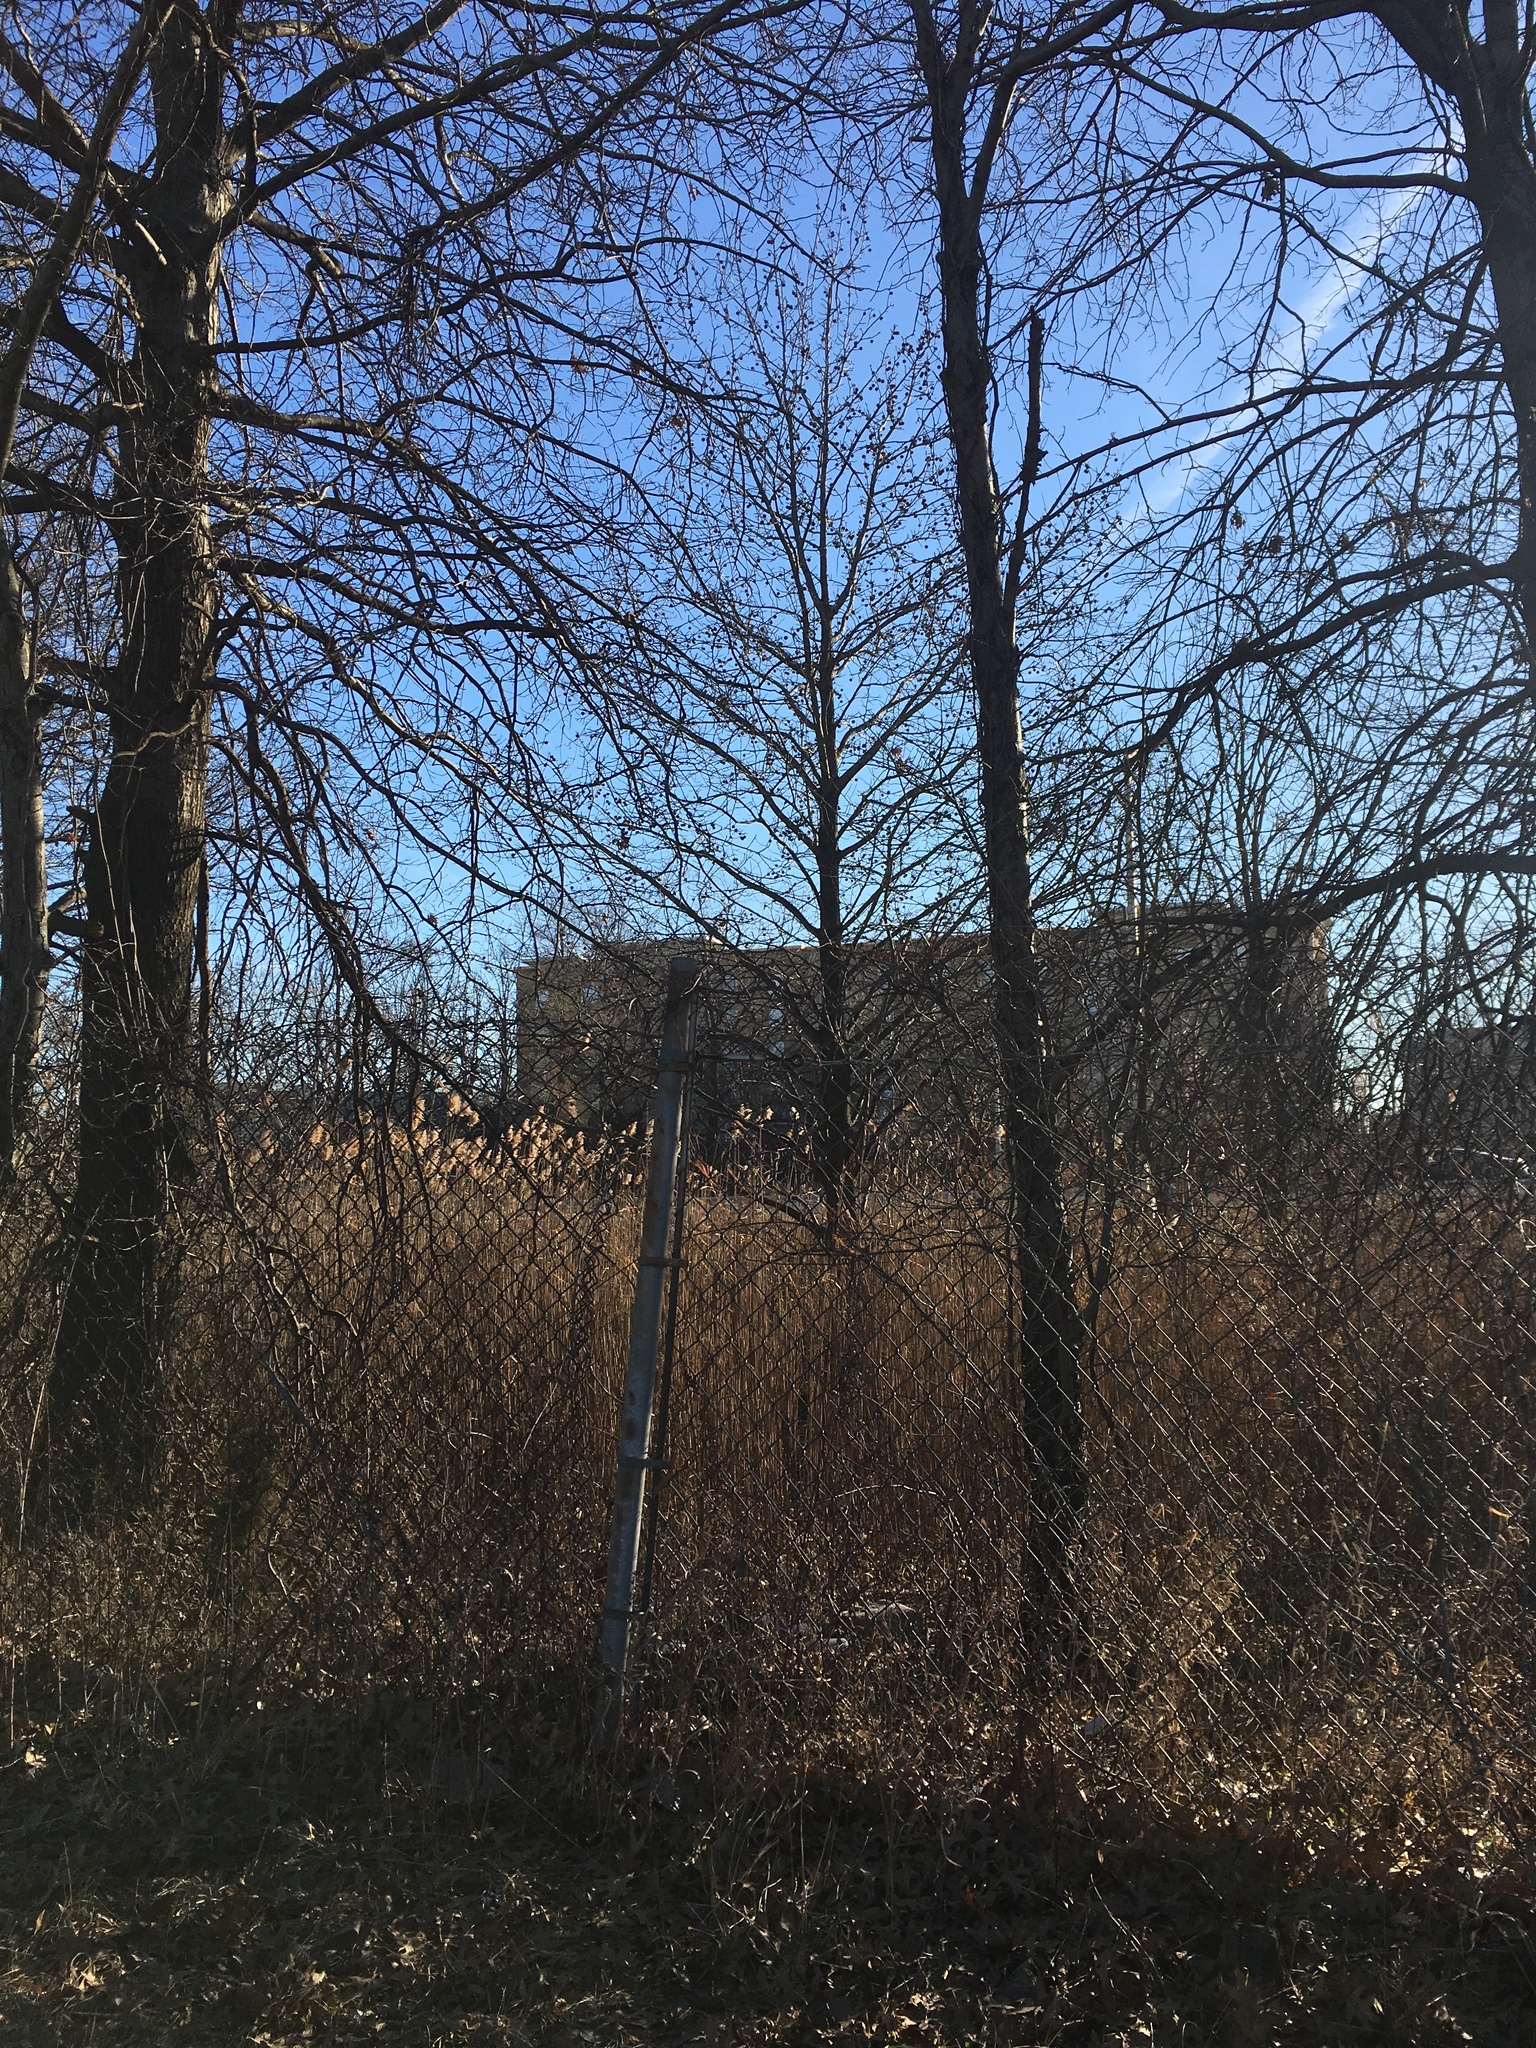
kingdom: Plantae
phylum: Tracheophyta
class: Magnoliopsida
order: Saxifragales
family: Altingiaceae
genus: Liquidambar
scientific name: Liquidambar styraciflua
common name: Sweet gum
